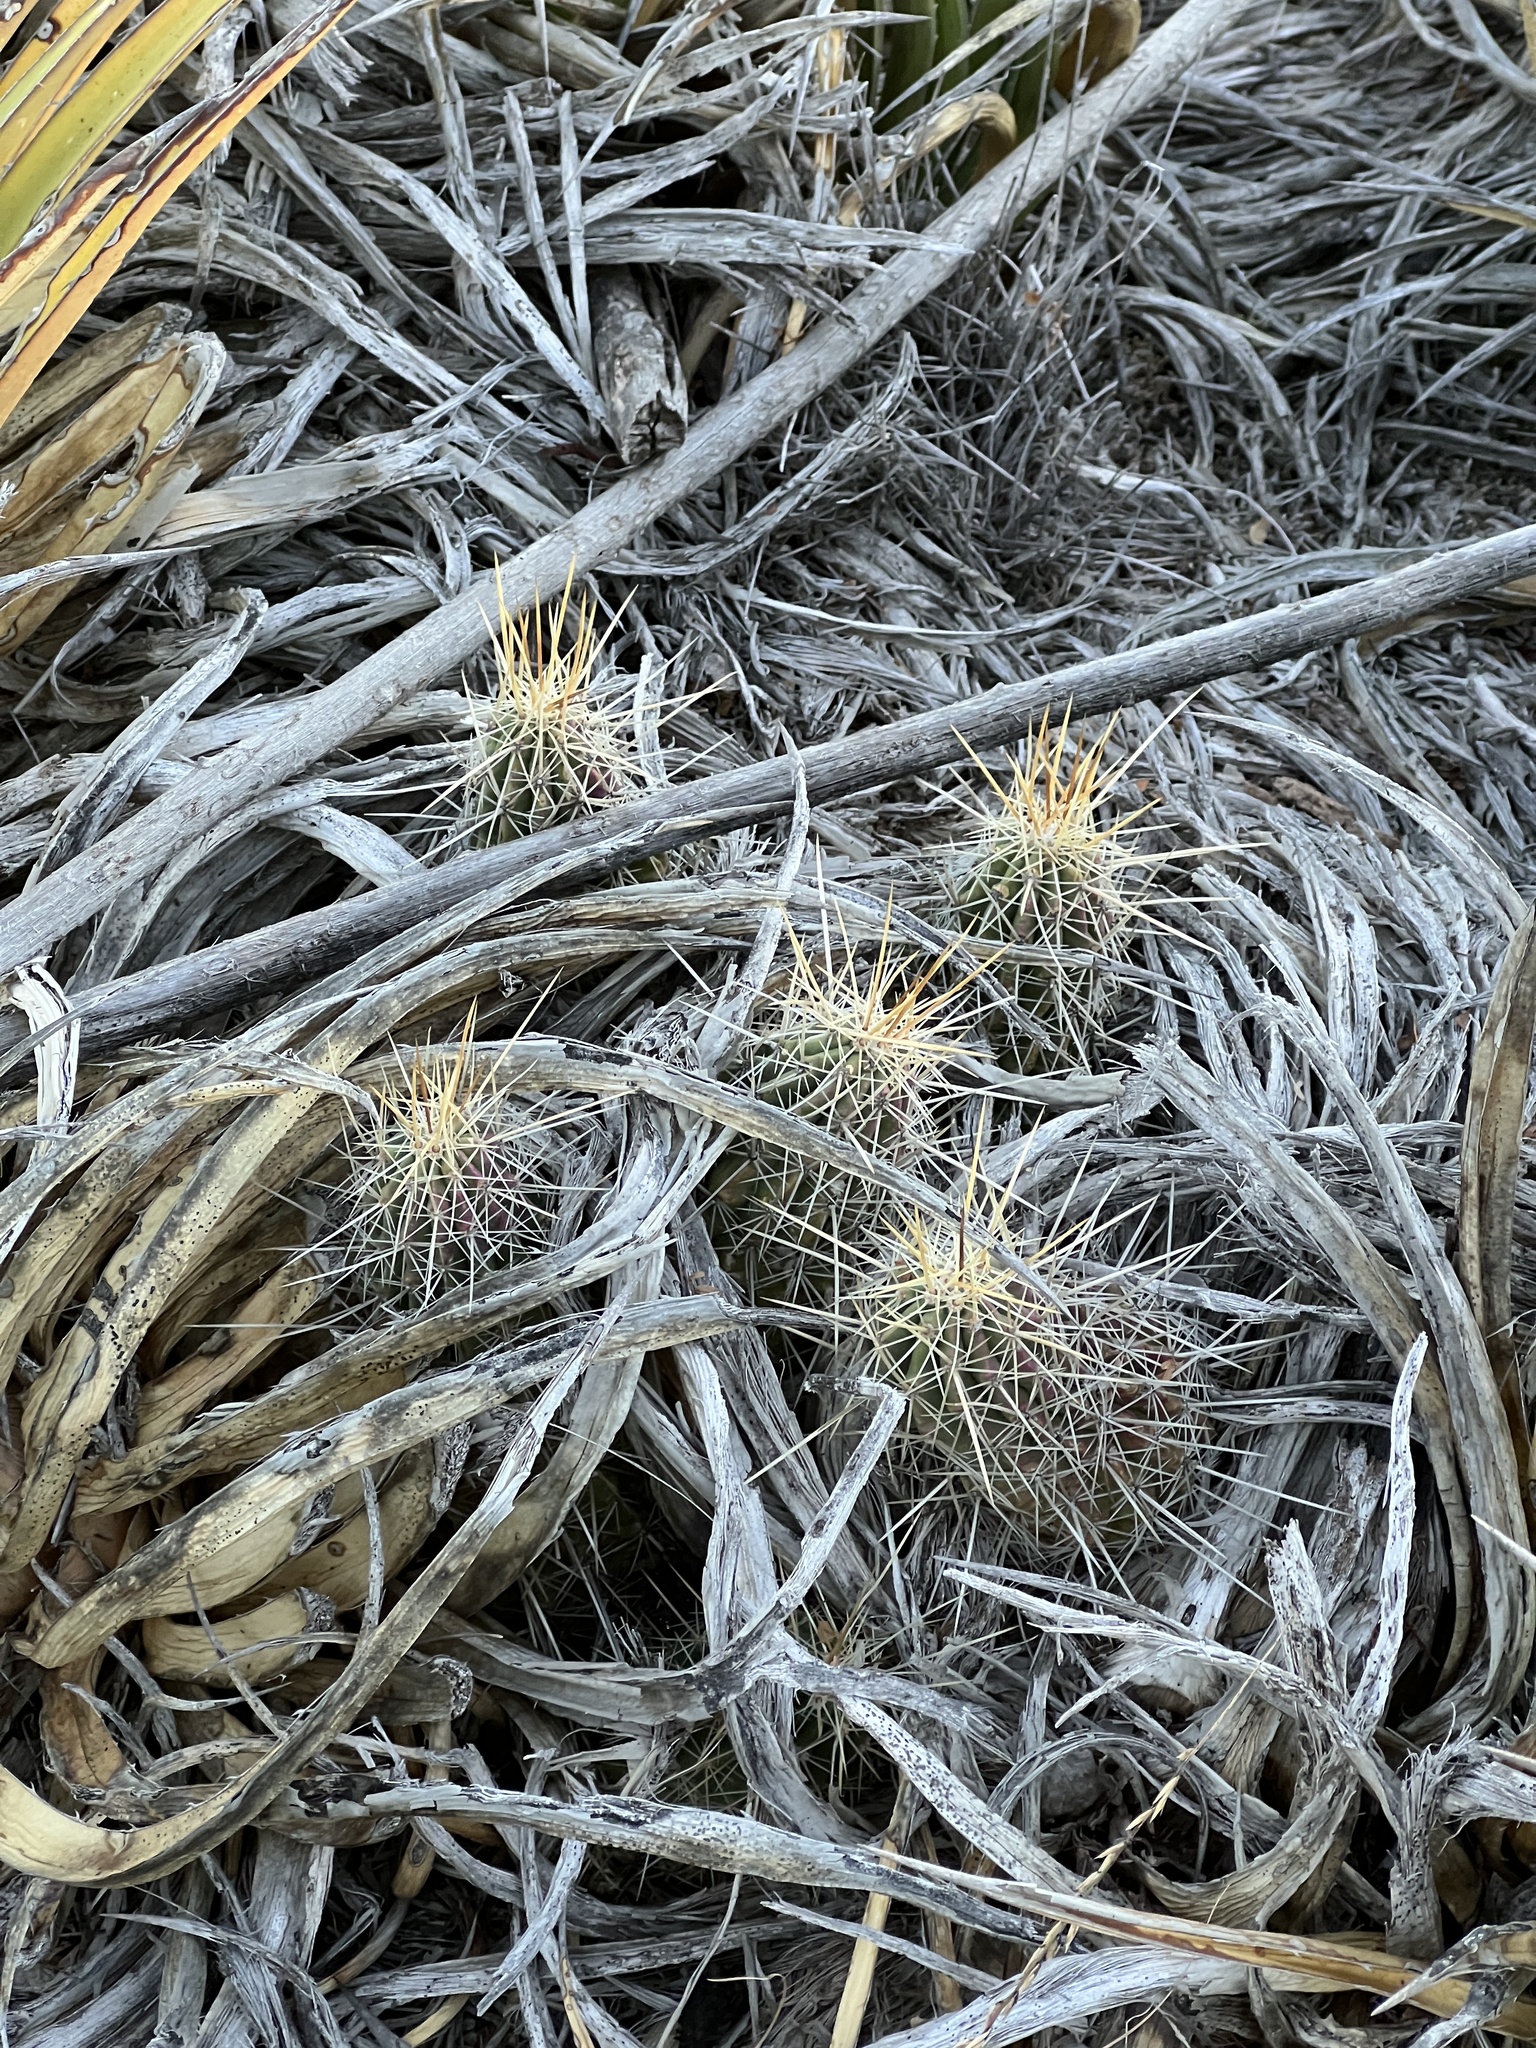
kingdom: Plantae
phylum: Tracheophyta
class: Magnoliopsida
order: Caryophyllales
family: Cactaceae
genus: Echinocereus
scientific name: Echinocereus stramineus
